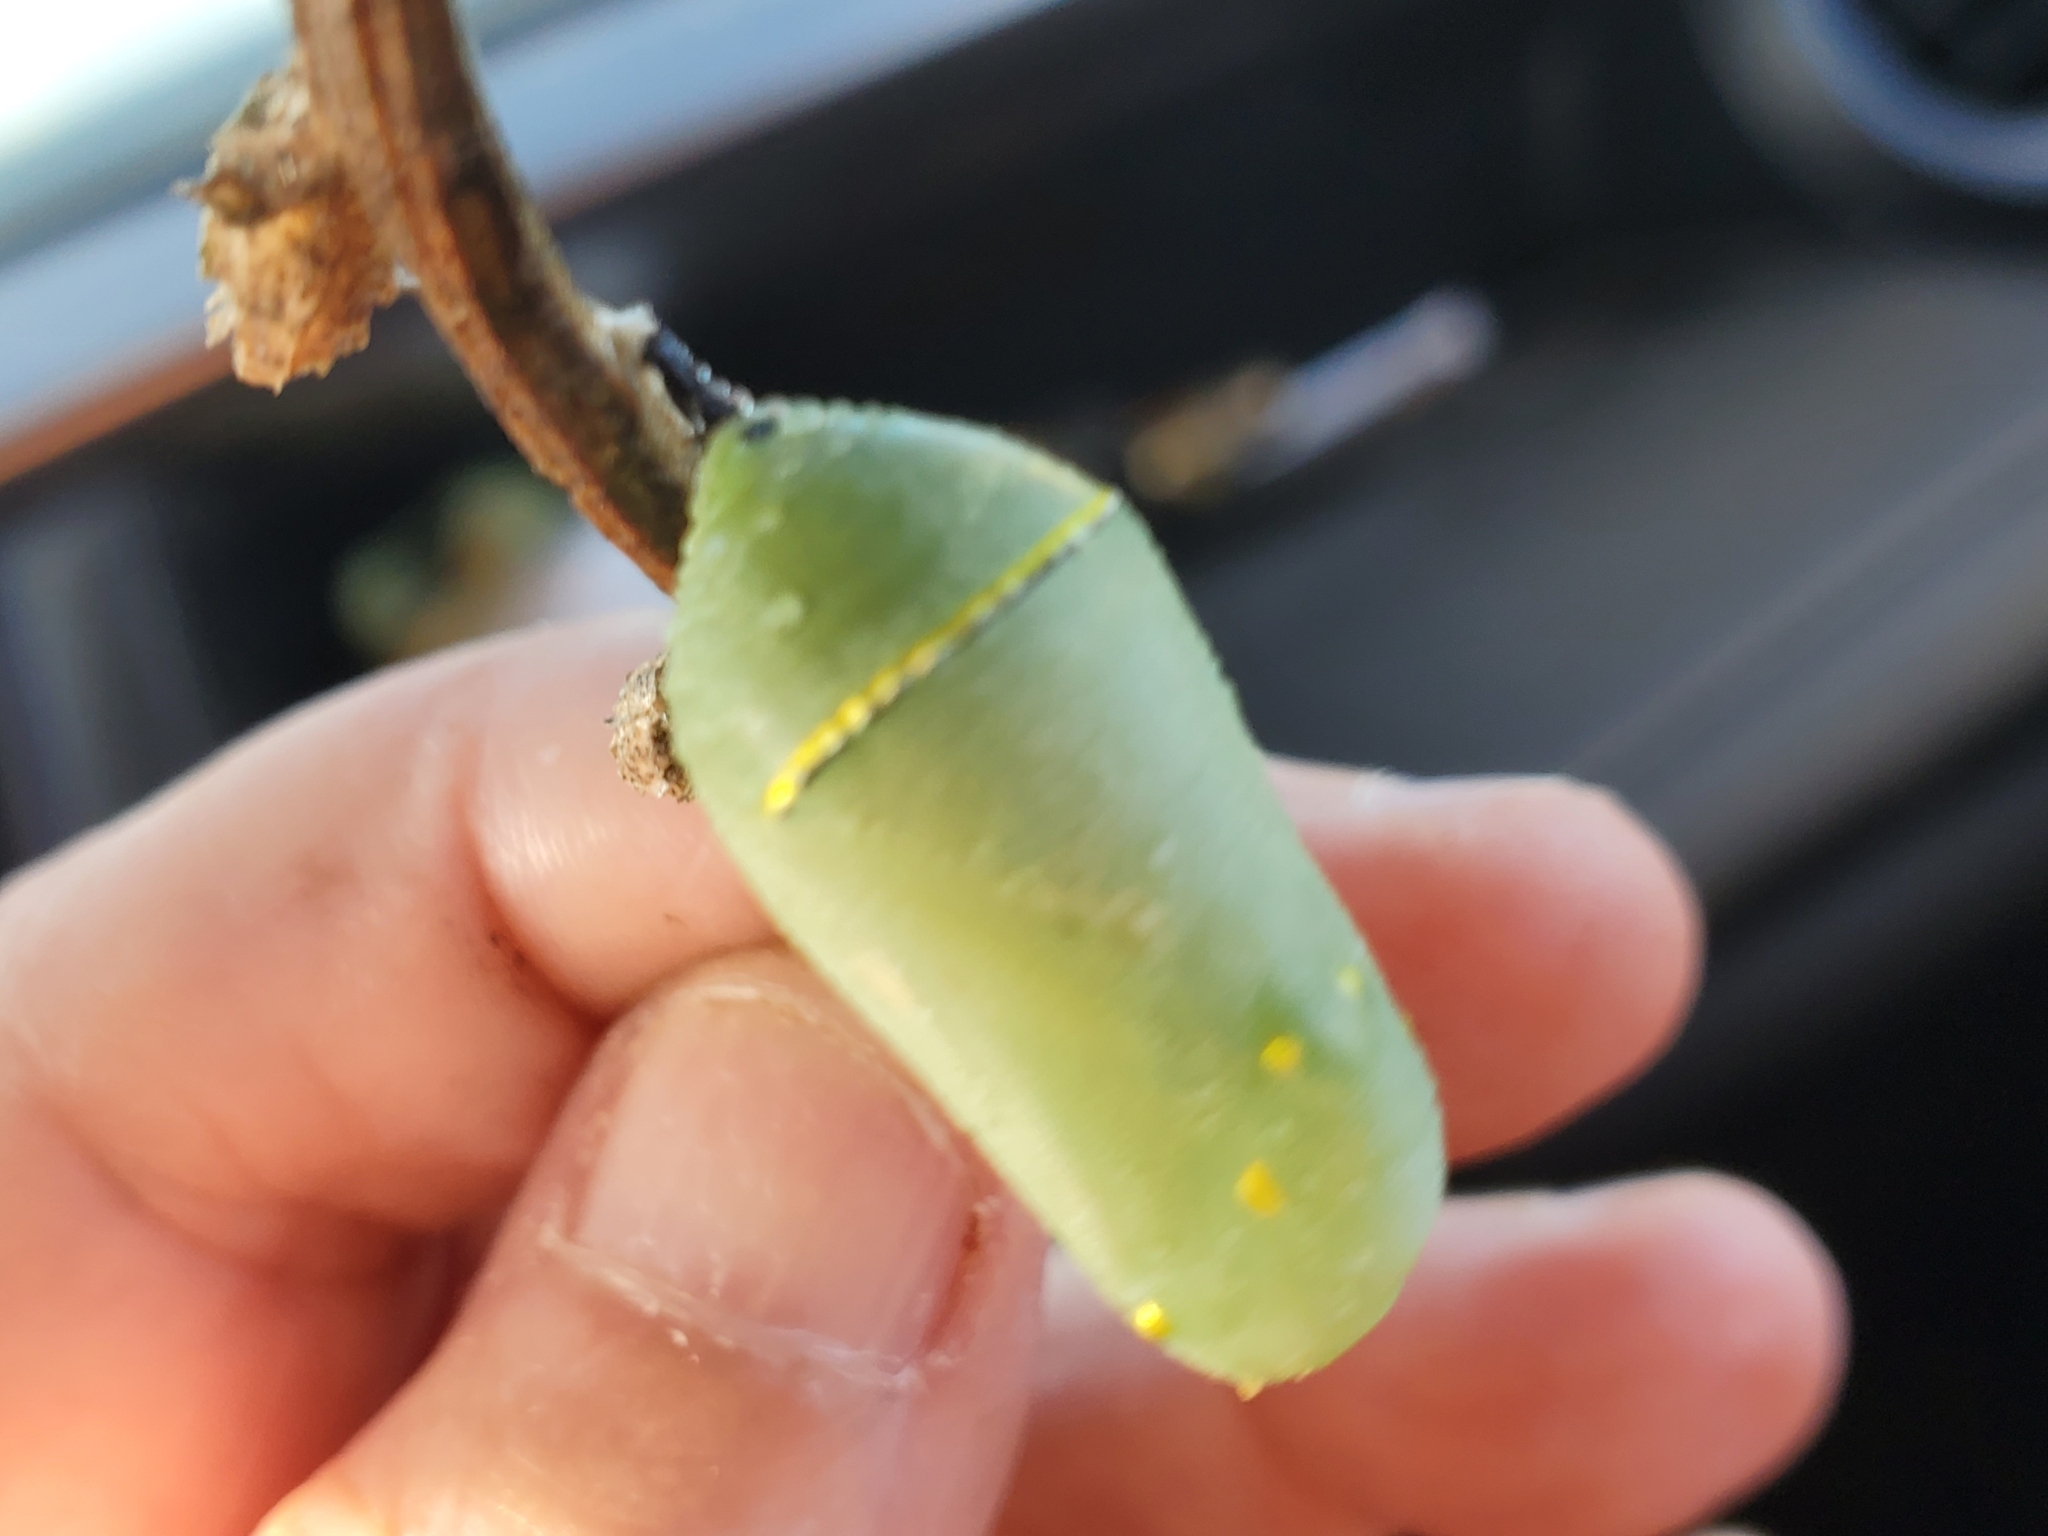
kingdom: Animalia
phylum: Arthropoda
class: Insecta
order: Lepidoptera
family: Nymphalidae
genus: Danaus
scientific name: Danaus plexippus
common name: Monarch
